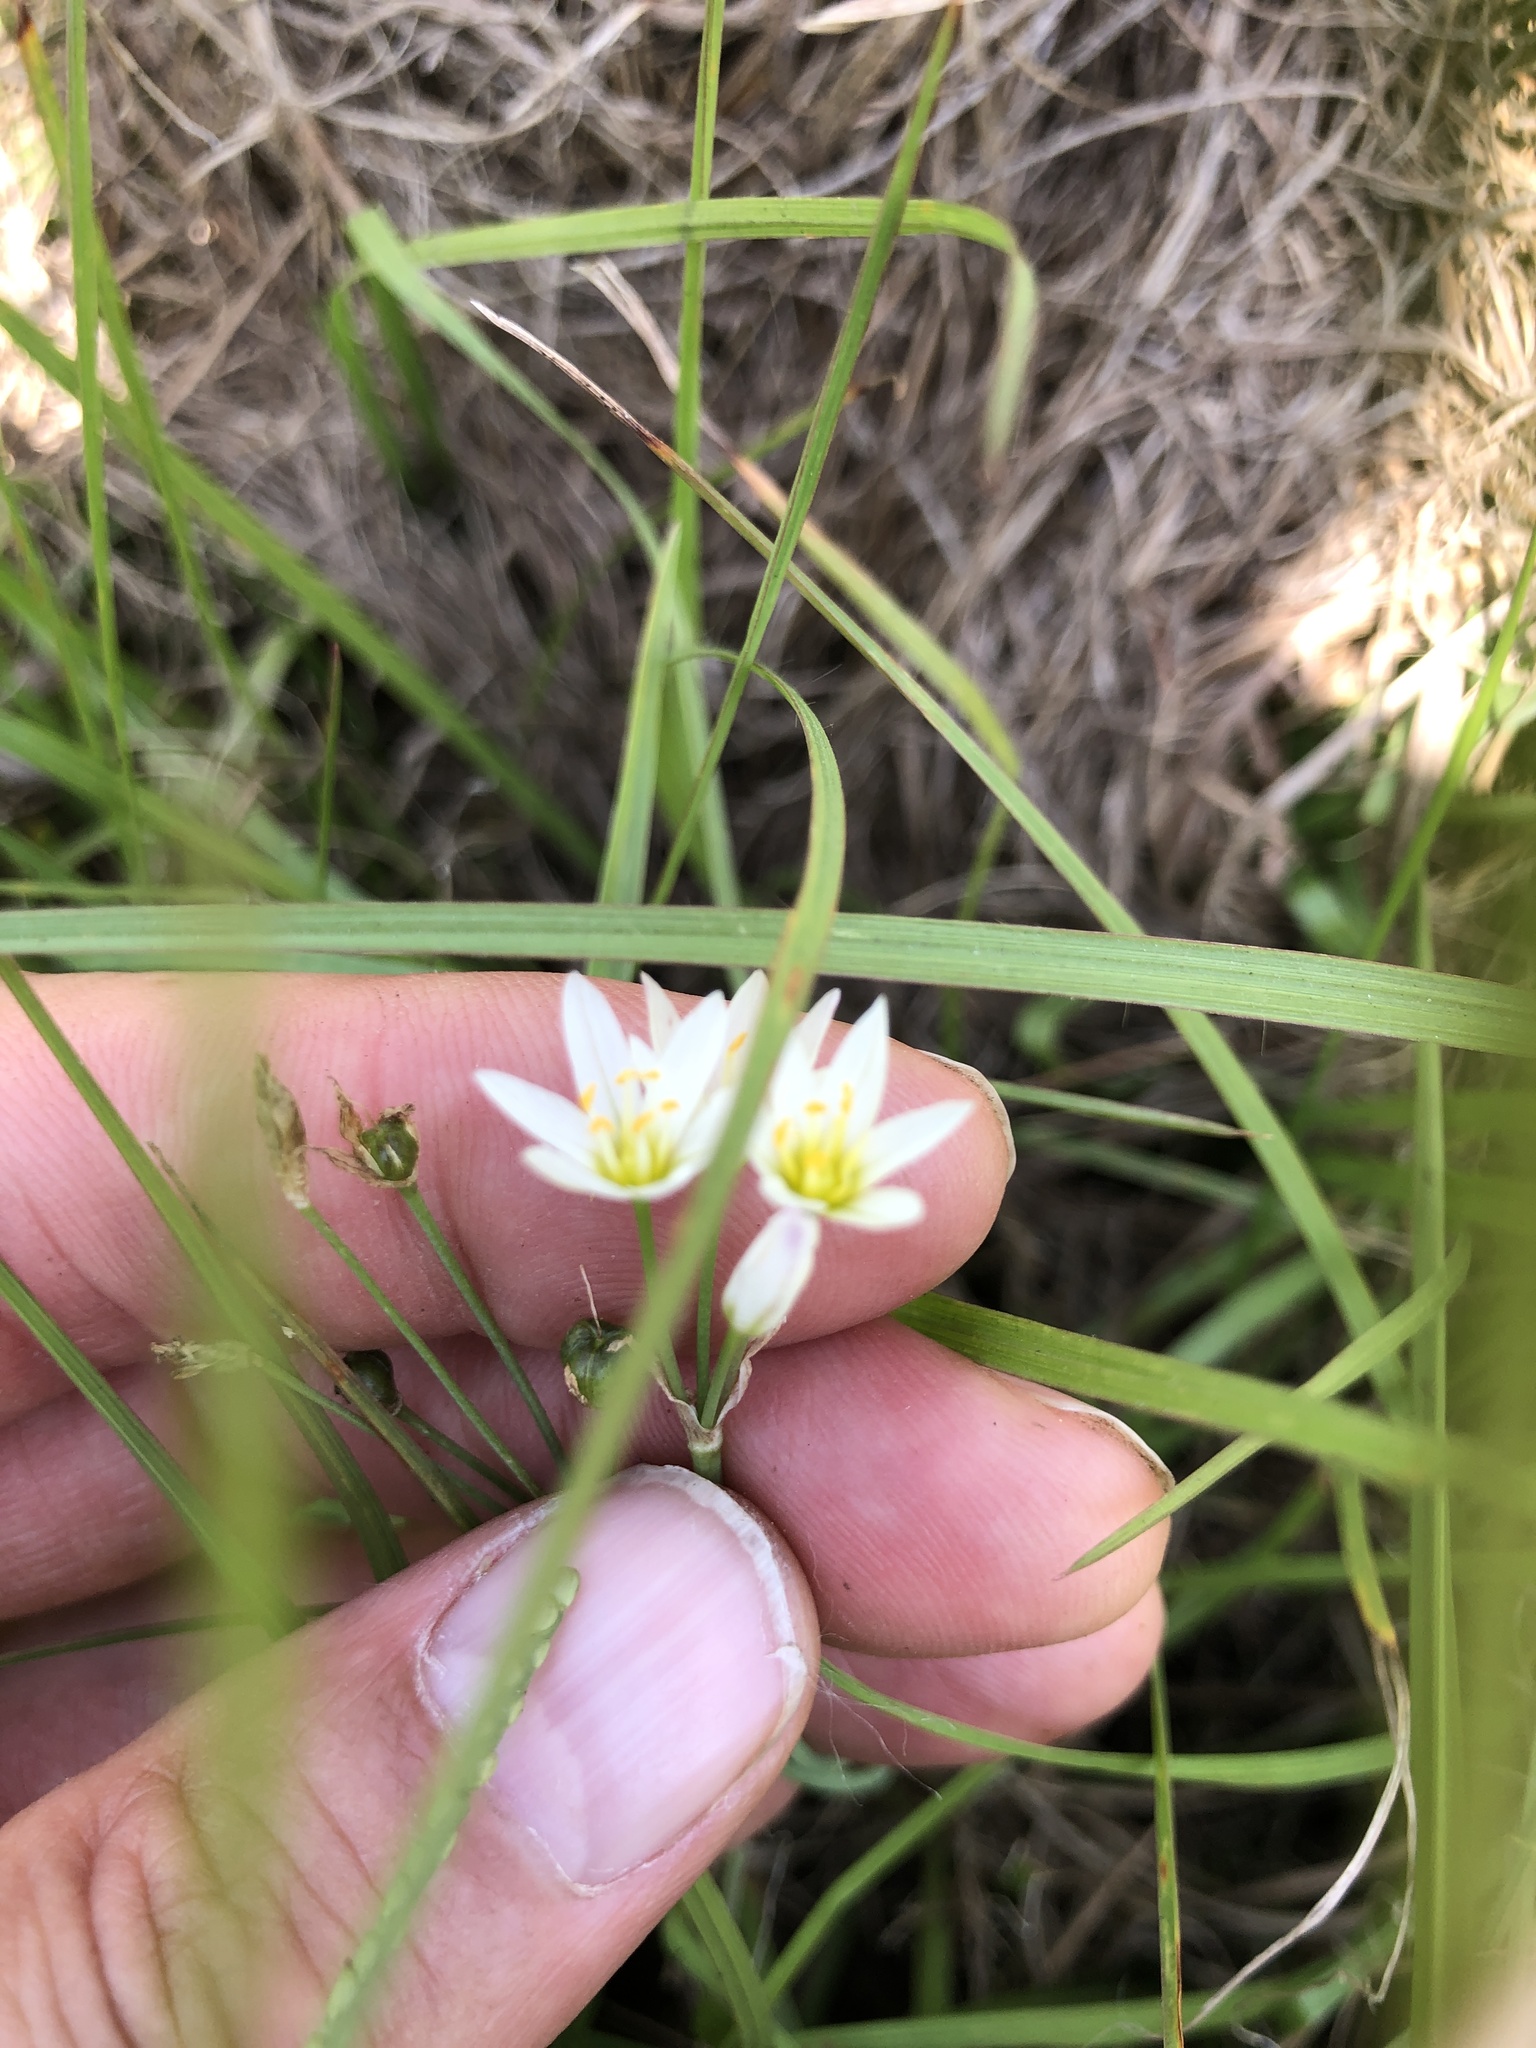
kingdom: Plantae
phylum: Tracheophyta
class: Liliopsida
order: Asparagales
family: Amaryllidaceae
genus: Nothoscordum
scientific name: Nothoscordum bivalve
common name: Crow-poison
